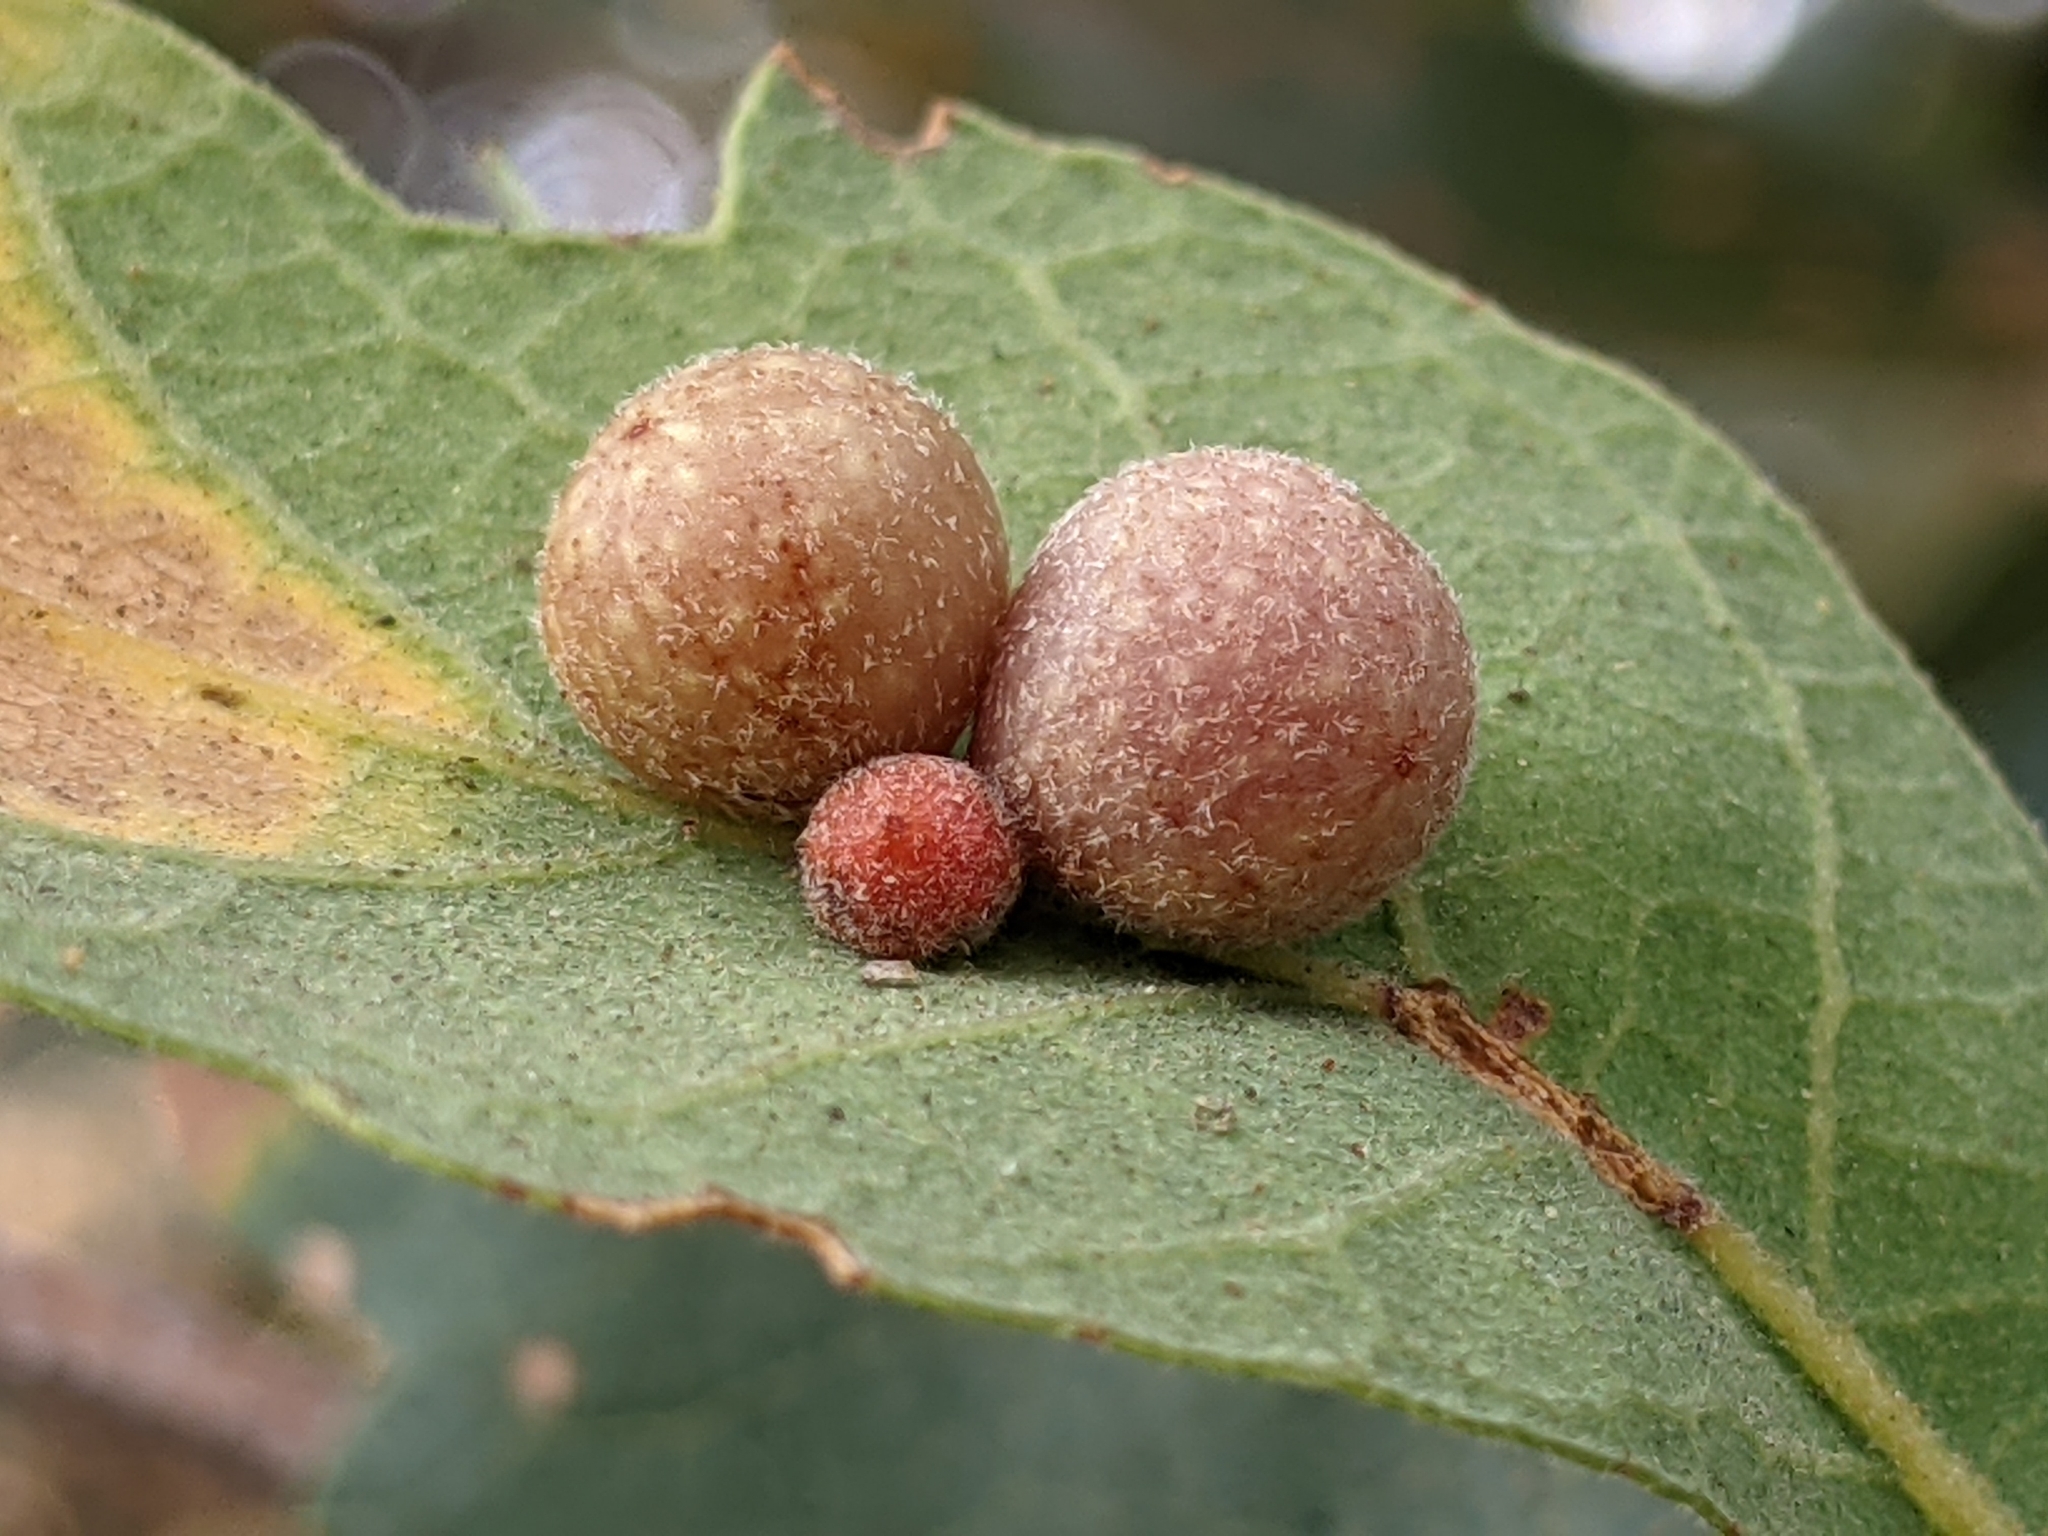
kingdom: Animalia
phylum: Arthropoda
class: Insecta
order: Hymenoptera
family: Cynipidae
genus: Andricus
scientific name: Andricus
